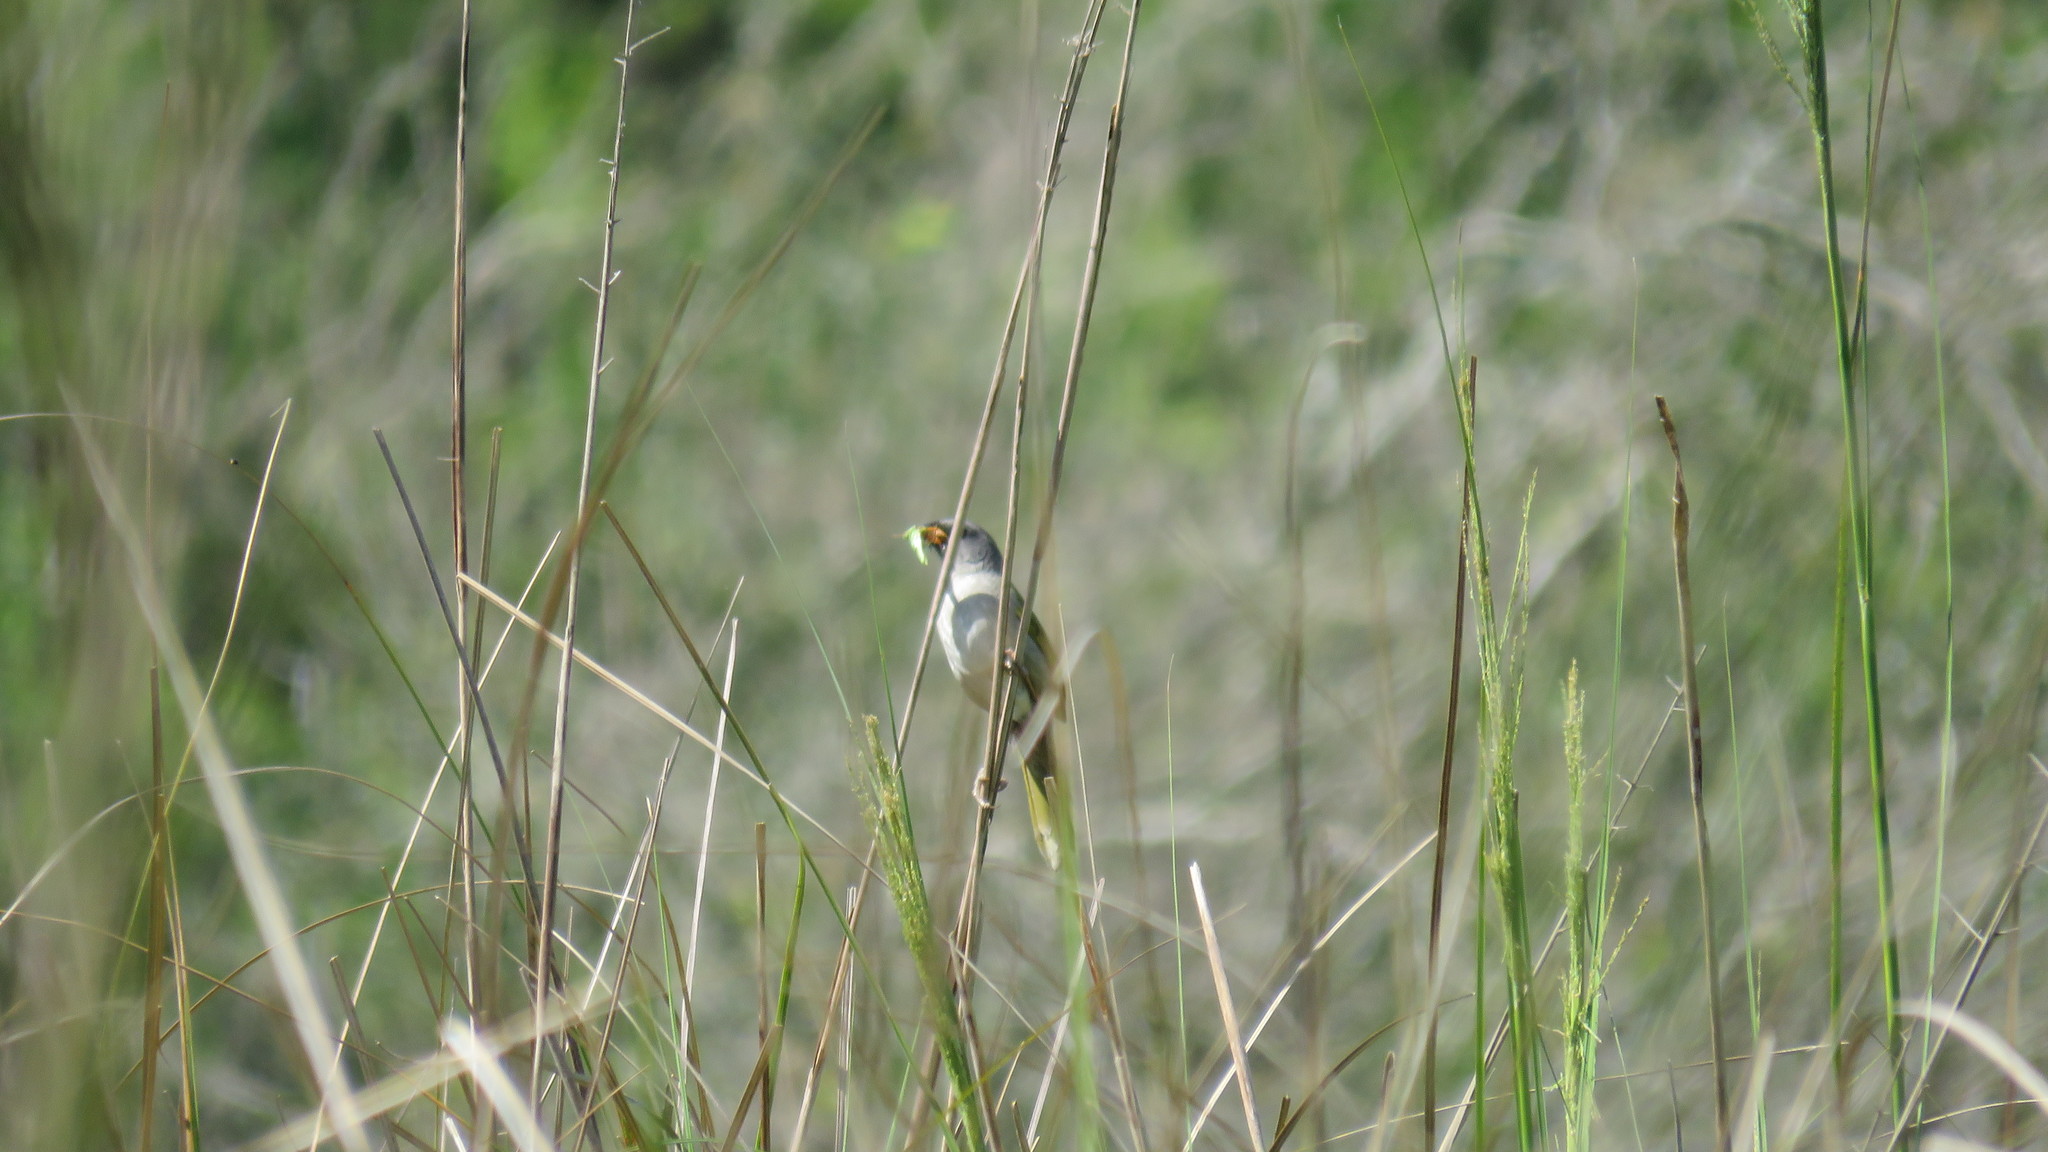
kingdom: Animalia
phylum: Chordata
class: Aves
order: Passeriformes
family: Thraupidae
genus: Embernagra
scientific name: Embernagra platensis
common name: Pampa finch
